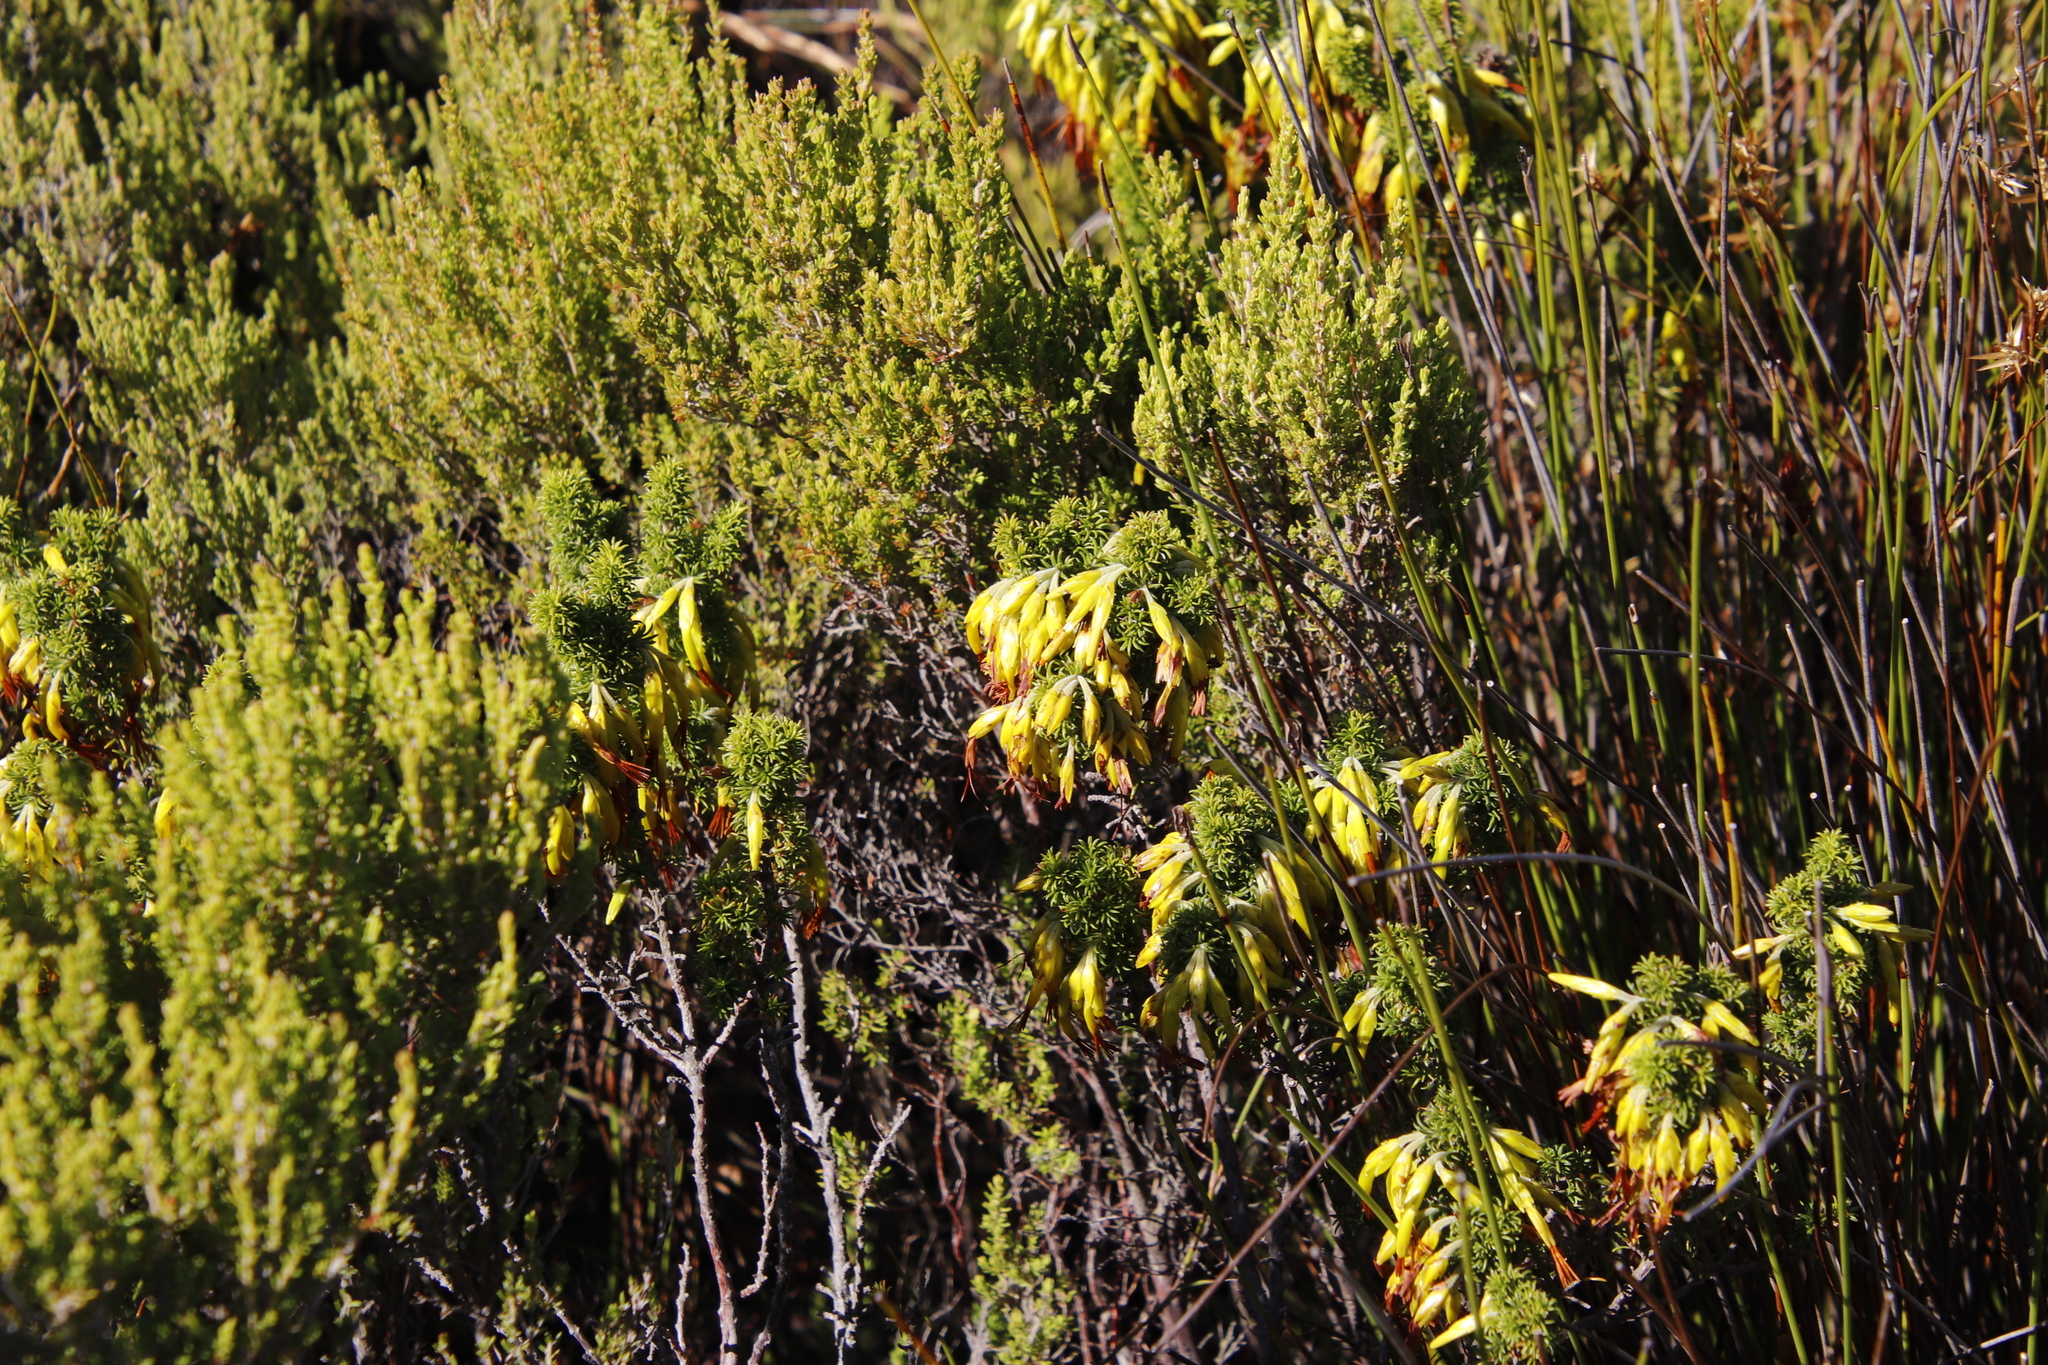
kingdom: Plantae
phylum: Tracheophyta
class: Magnoliopsida
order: Ericales
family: Ericaceae
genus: Erica
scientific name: Erica coccinea
